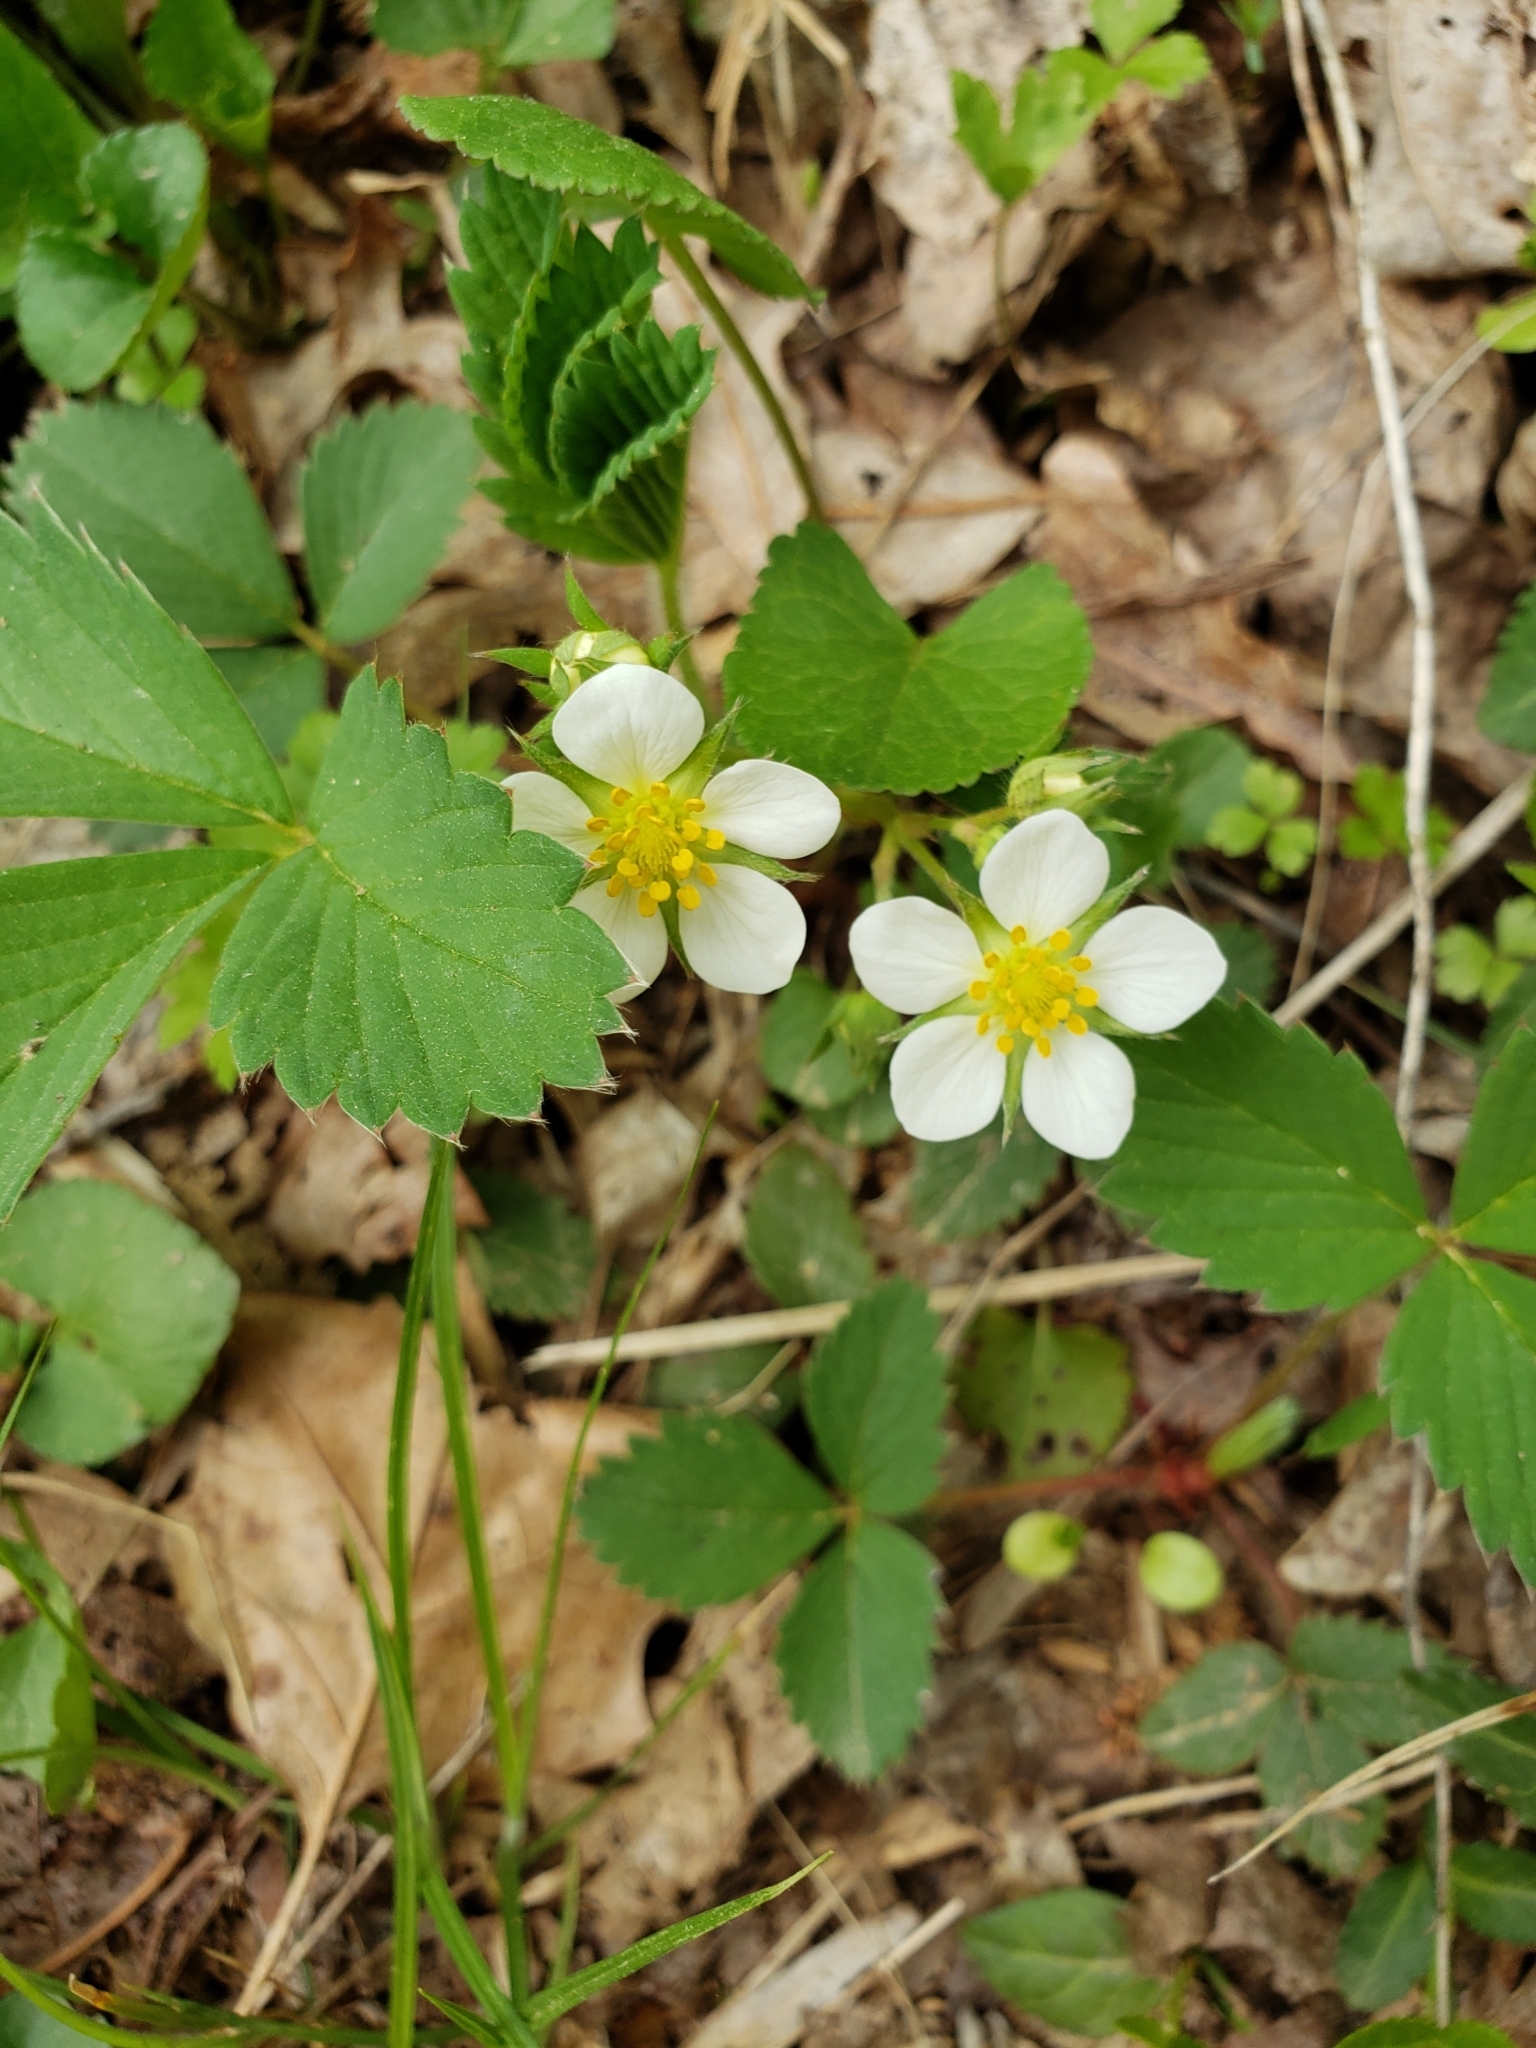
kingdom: Plantae
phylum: Tracheophyta
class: Magnoliopsida
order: Rosales
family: Rosaceae
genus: Fragaria
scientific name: Fragaria virginiana
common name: Thickleaved wild strawberry
